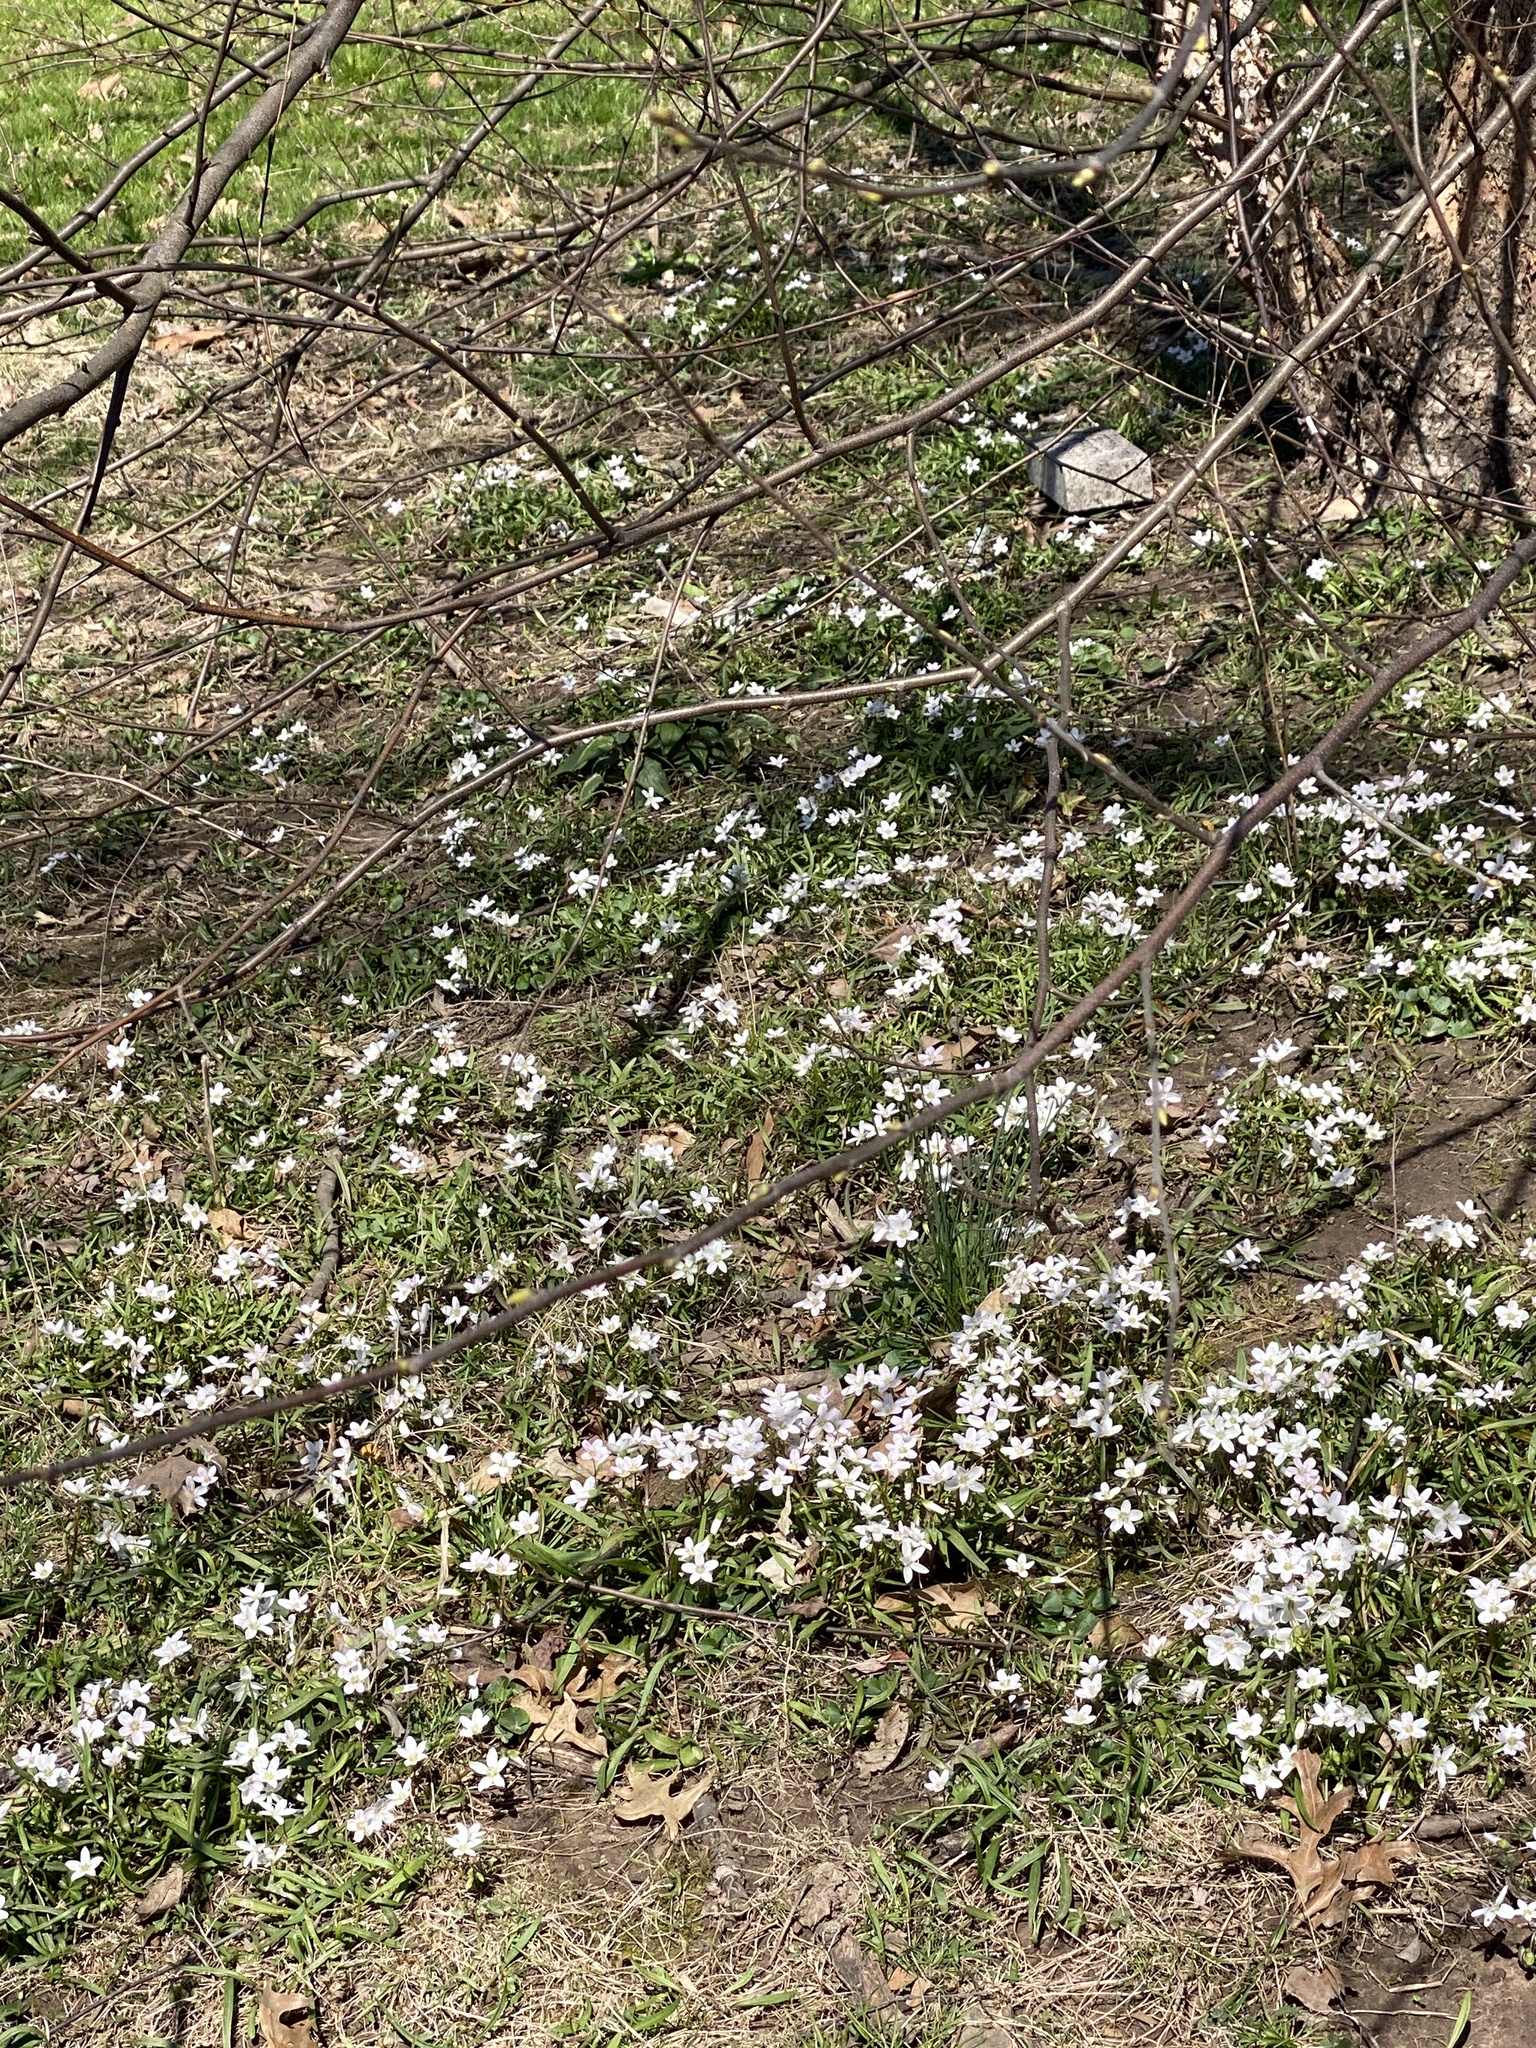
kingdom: Plantae
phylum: Tracheophyta
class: Magnoliopsida
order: Caryophyllales
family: Montiaceae
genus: Claytonia
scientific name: Claytonia virginica
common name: Virginia springbeauty
